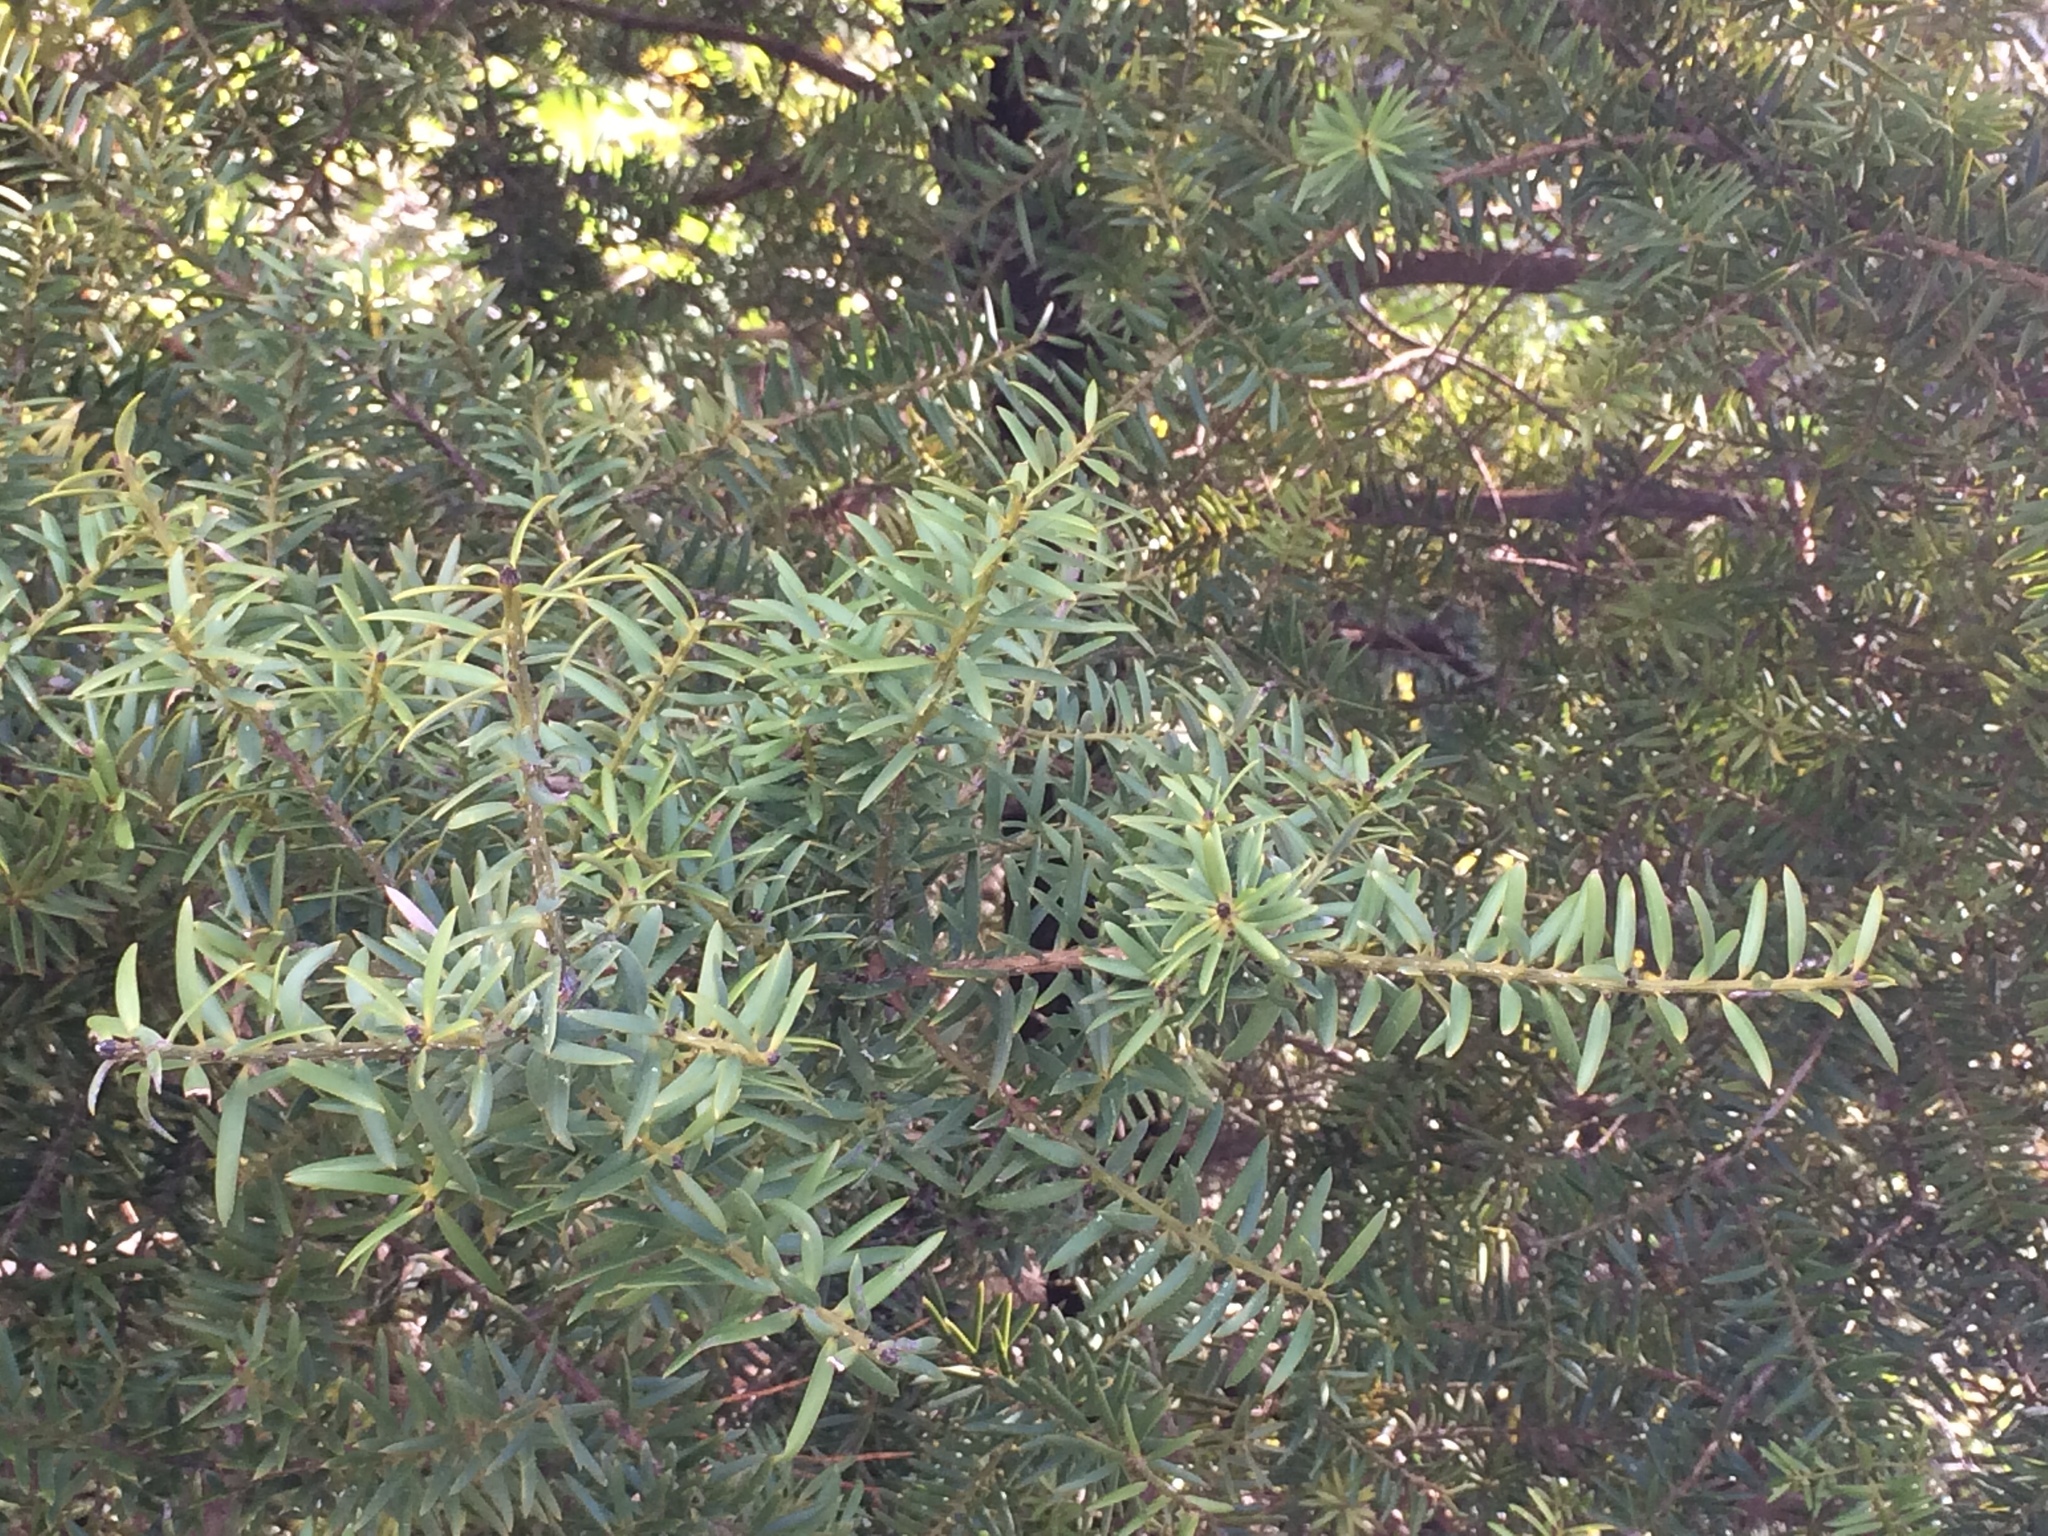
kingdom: Plantae
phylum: Tracheophyta
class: Pinopsida
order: Pinales
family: Podocarpaceae
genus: Podocarpus
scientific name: Podocarpus totara
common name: Totara
